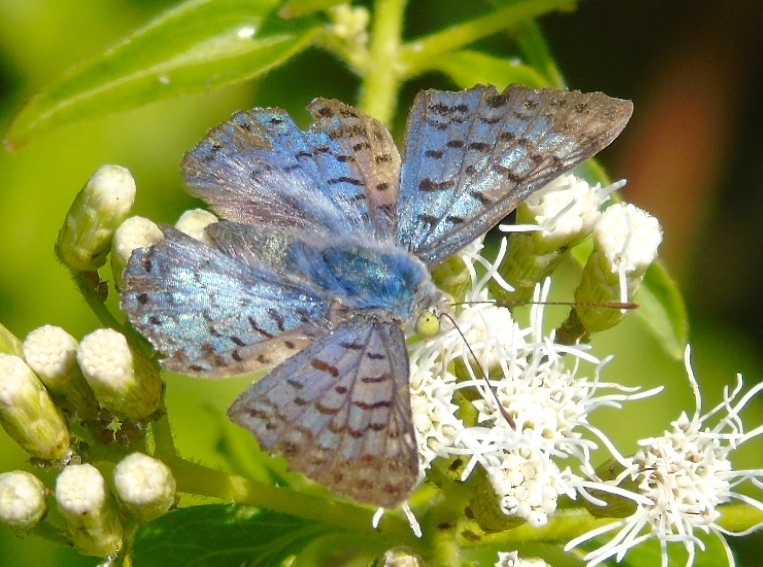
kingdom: Animalia
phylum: Arthropoda
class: Insecta
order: Lepidoptera
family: Riodinidae
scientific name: Riodinidae
